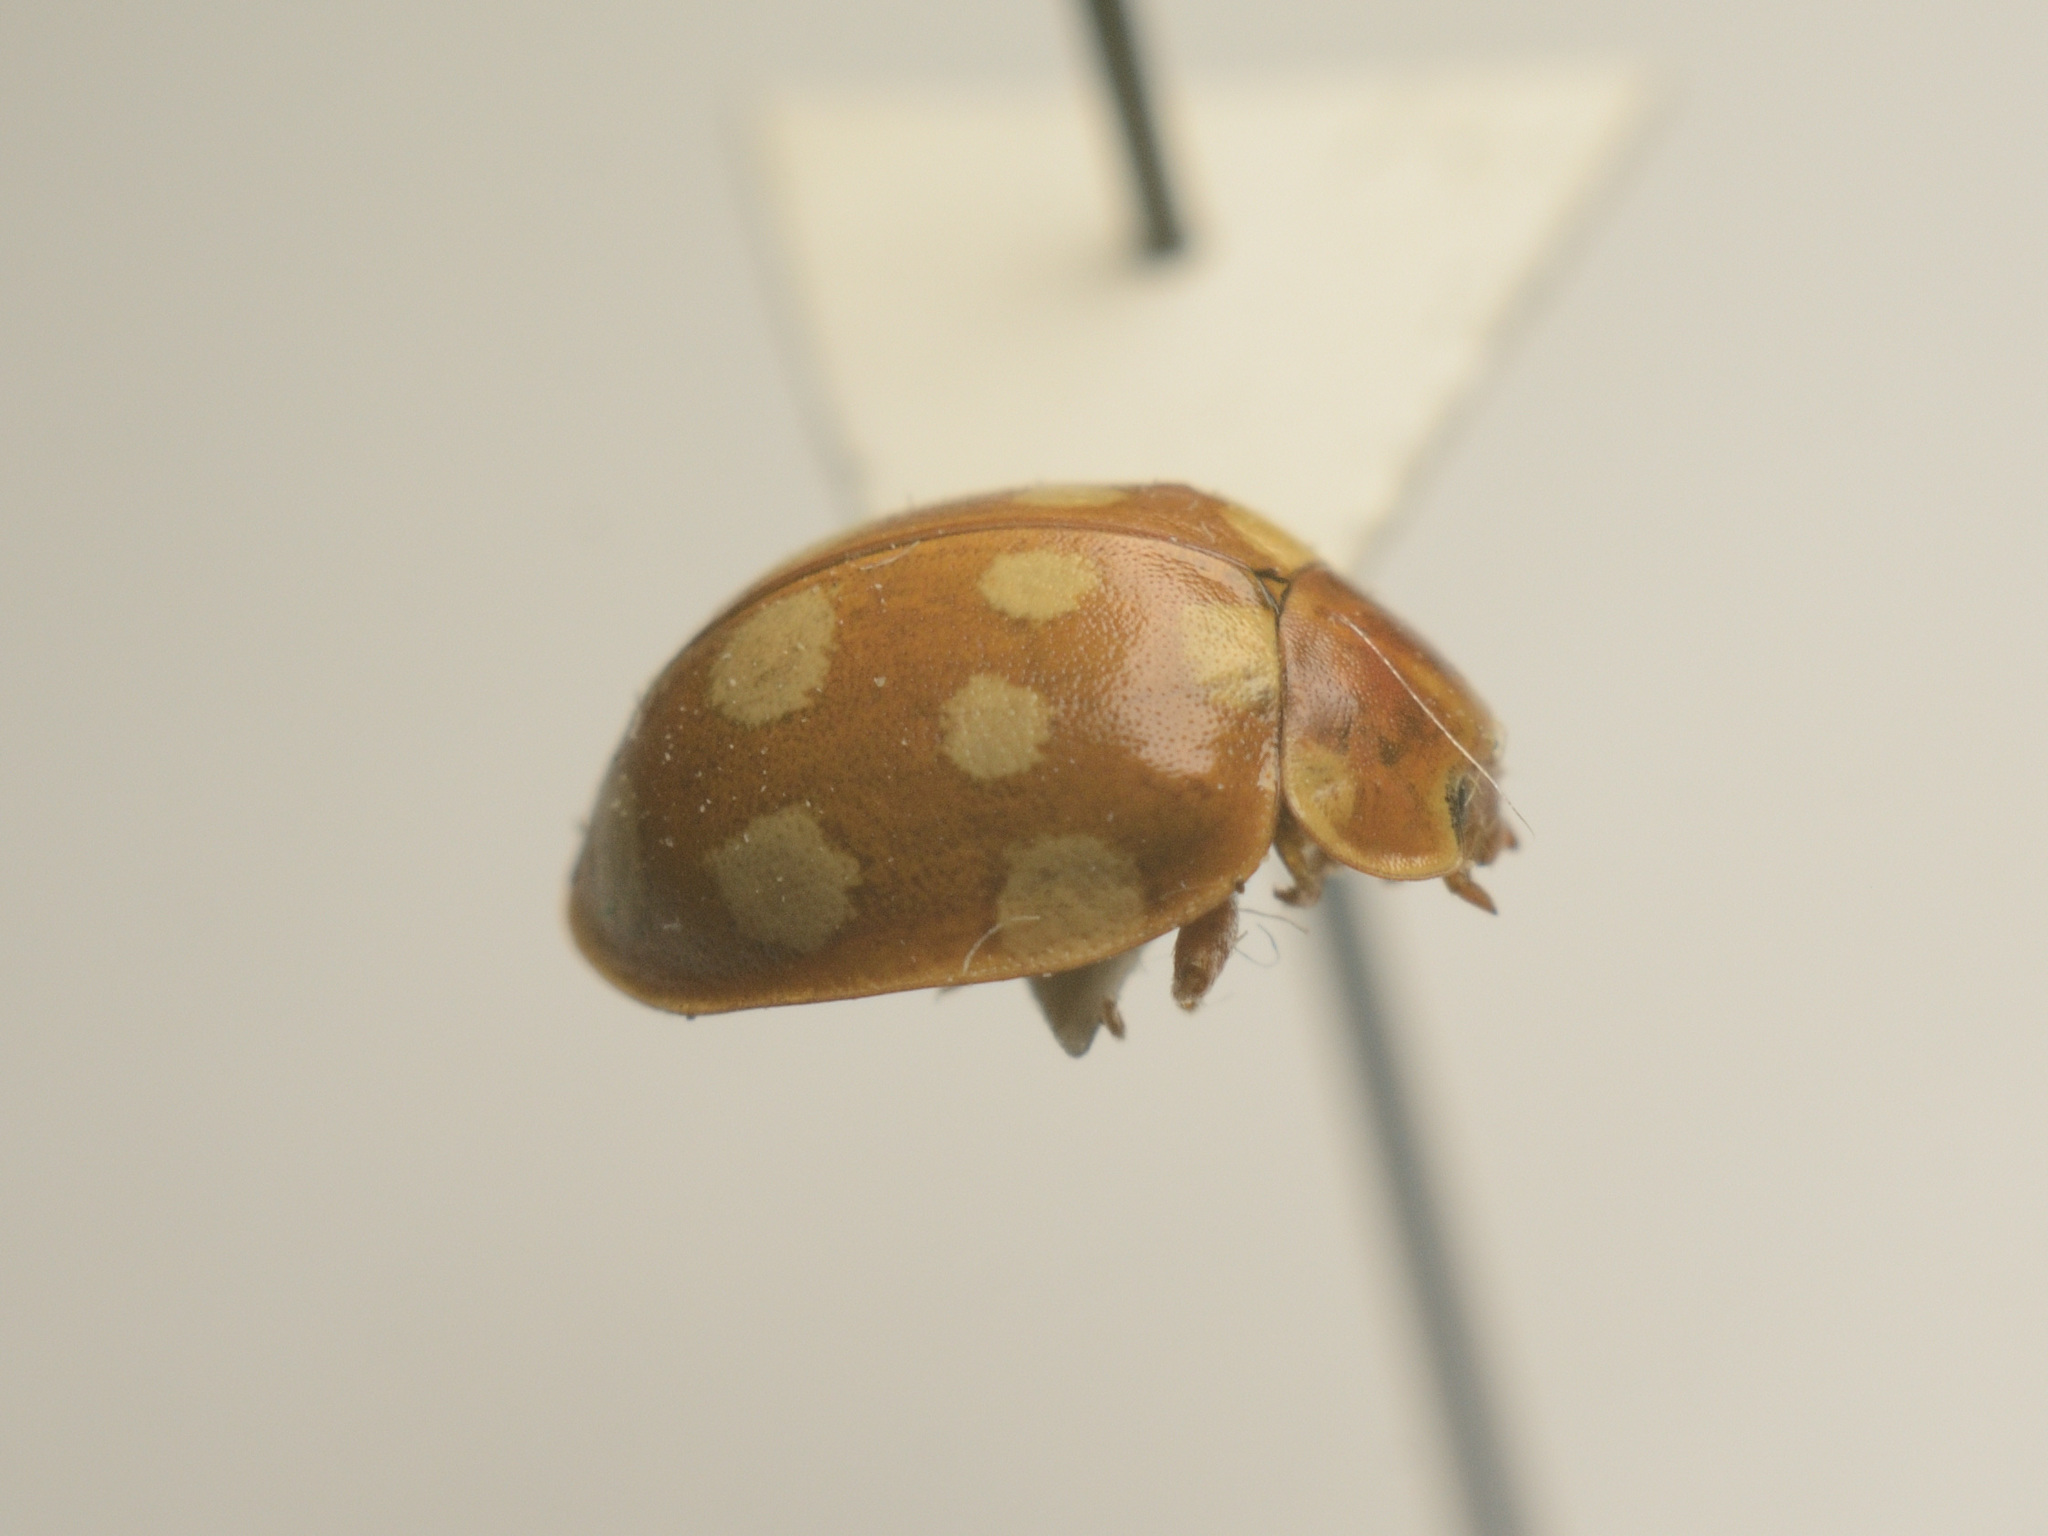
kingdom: Animalia
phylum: Arthropoda
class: Insecta
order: Coleoptera
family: Coccinellidae
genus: Calvia
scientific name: Calvia quatuordecimguttata
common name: Cream-spot ladybird
